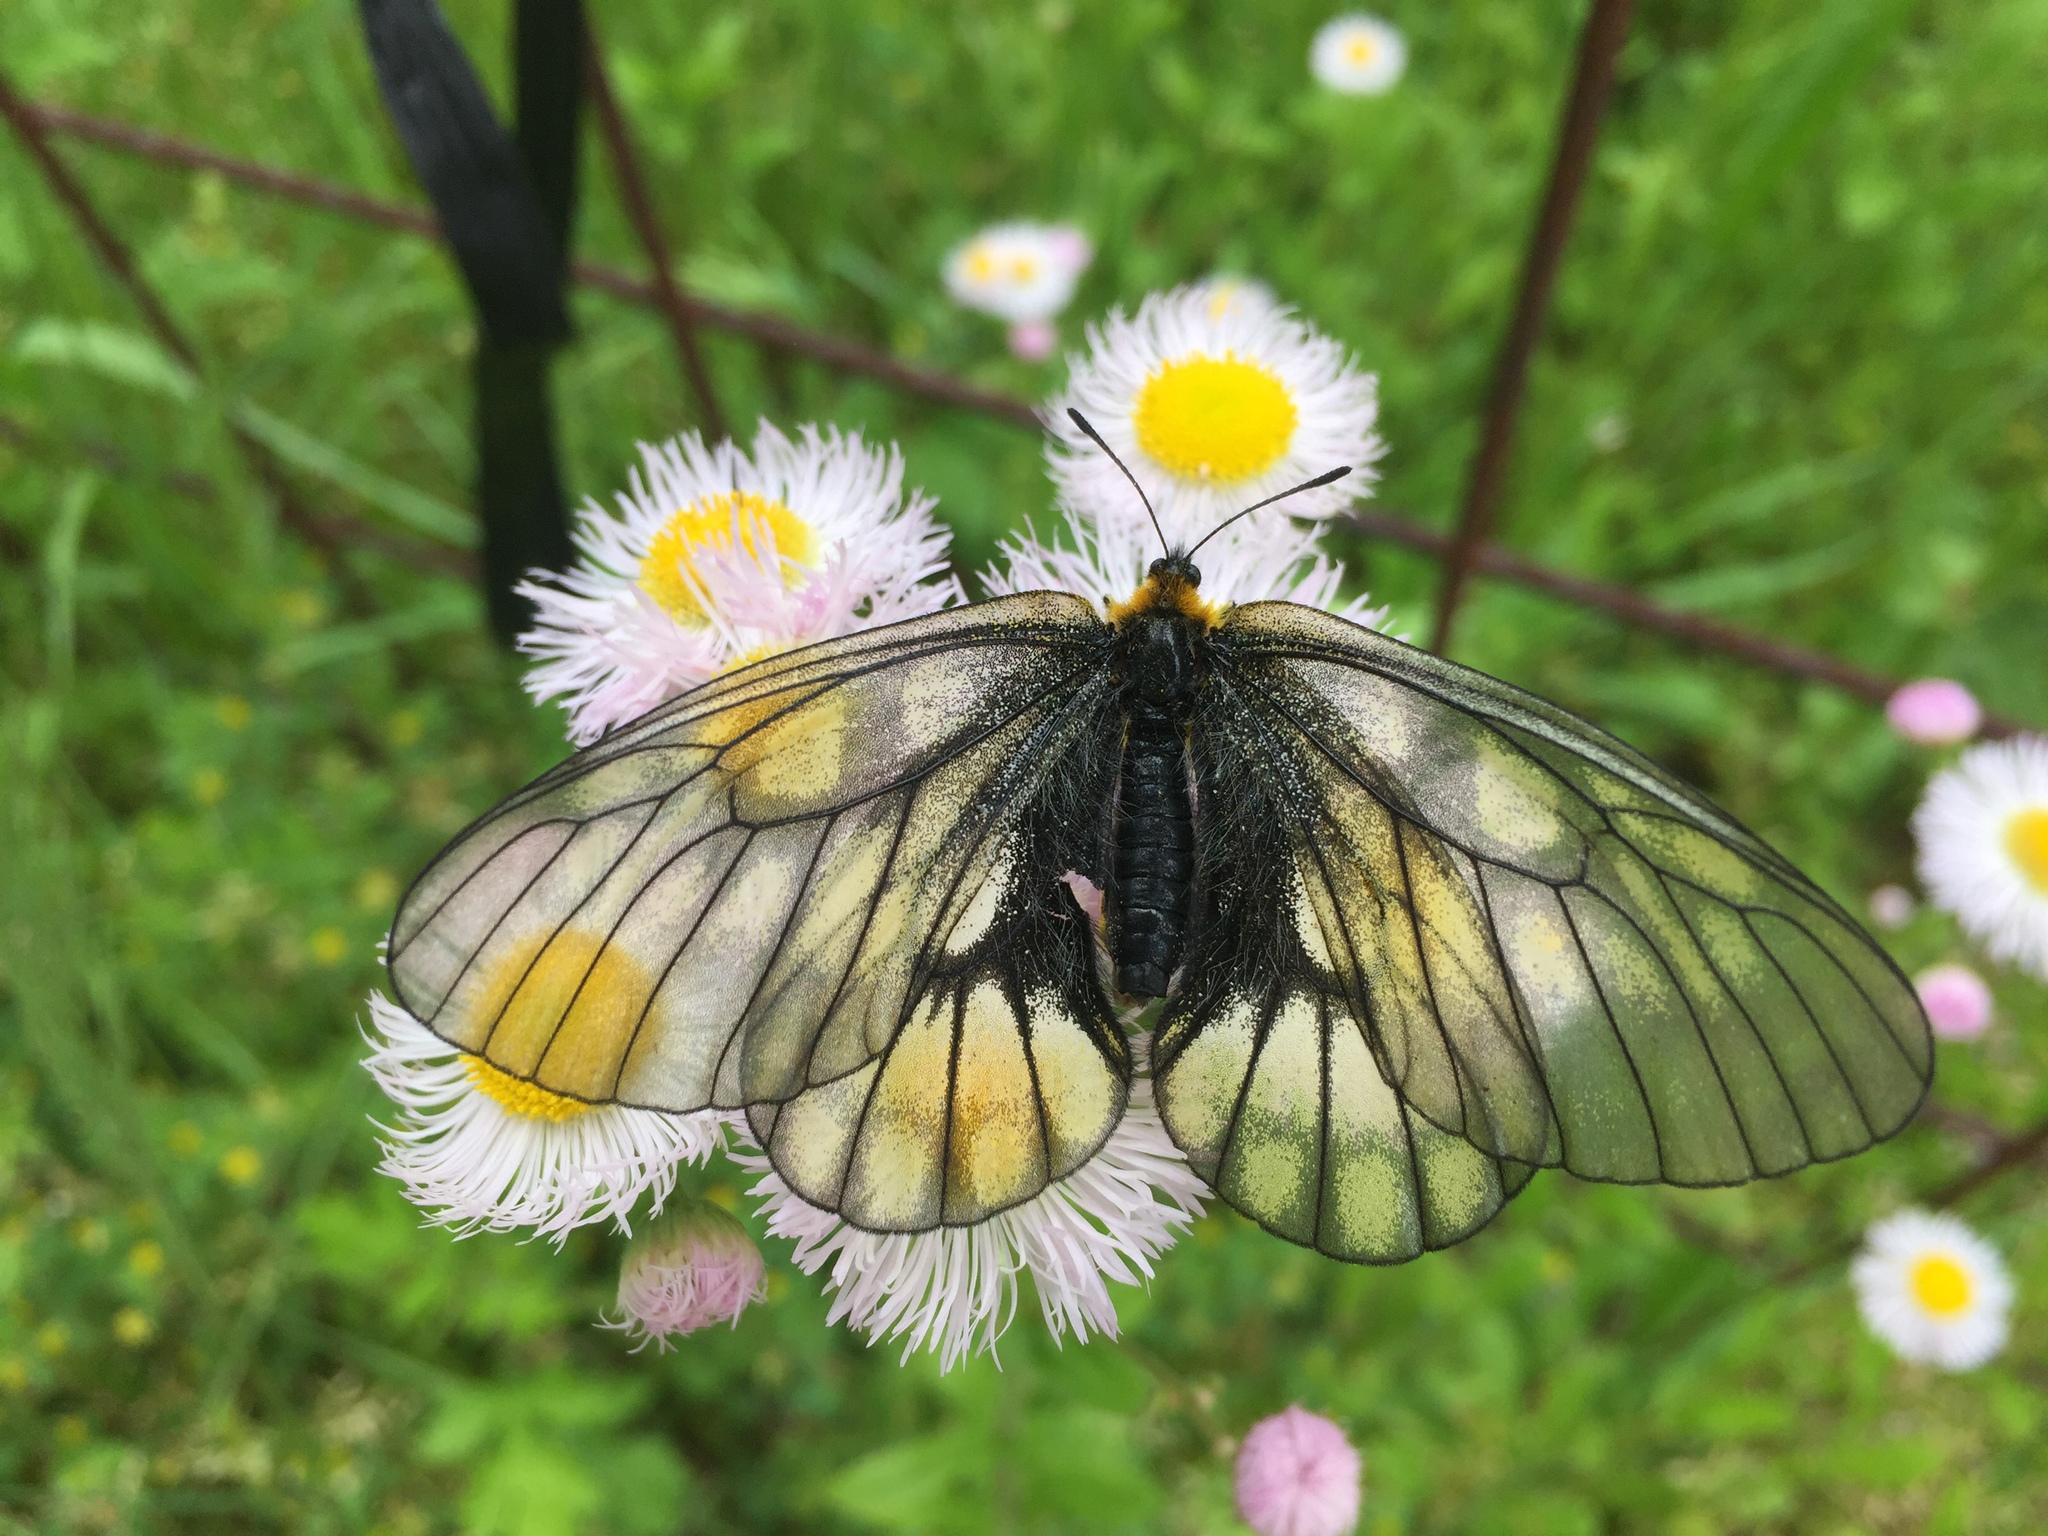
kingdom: Animalia
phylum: Arthropoda
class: Insecta
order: Lepidoptera
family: Papilionidae
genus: Parnassius
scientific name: Parnassius glacialis
